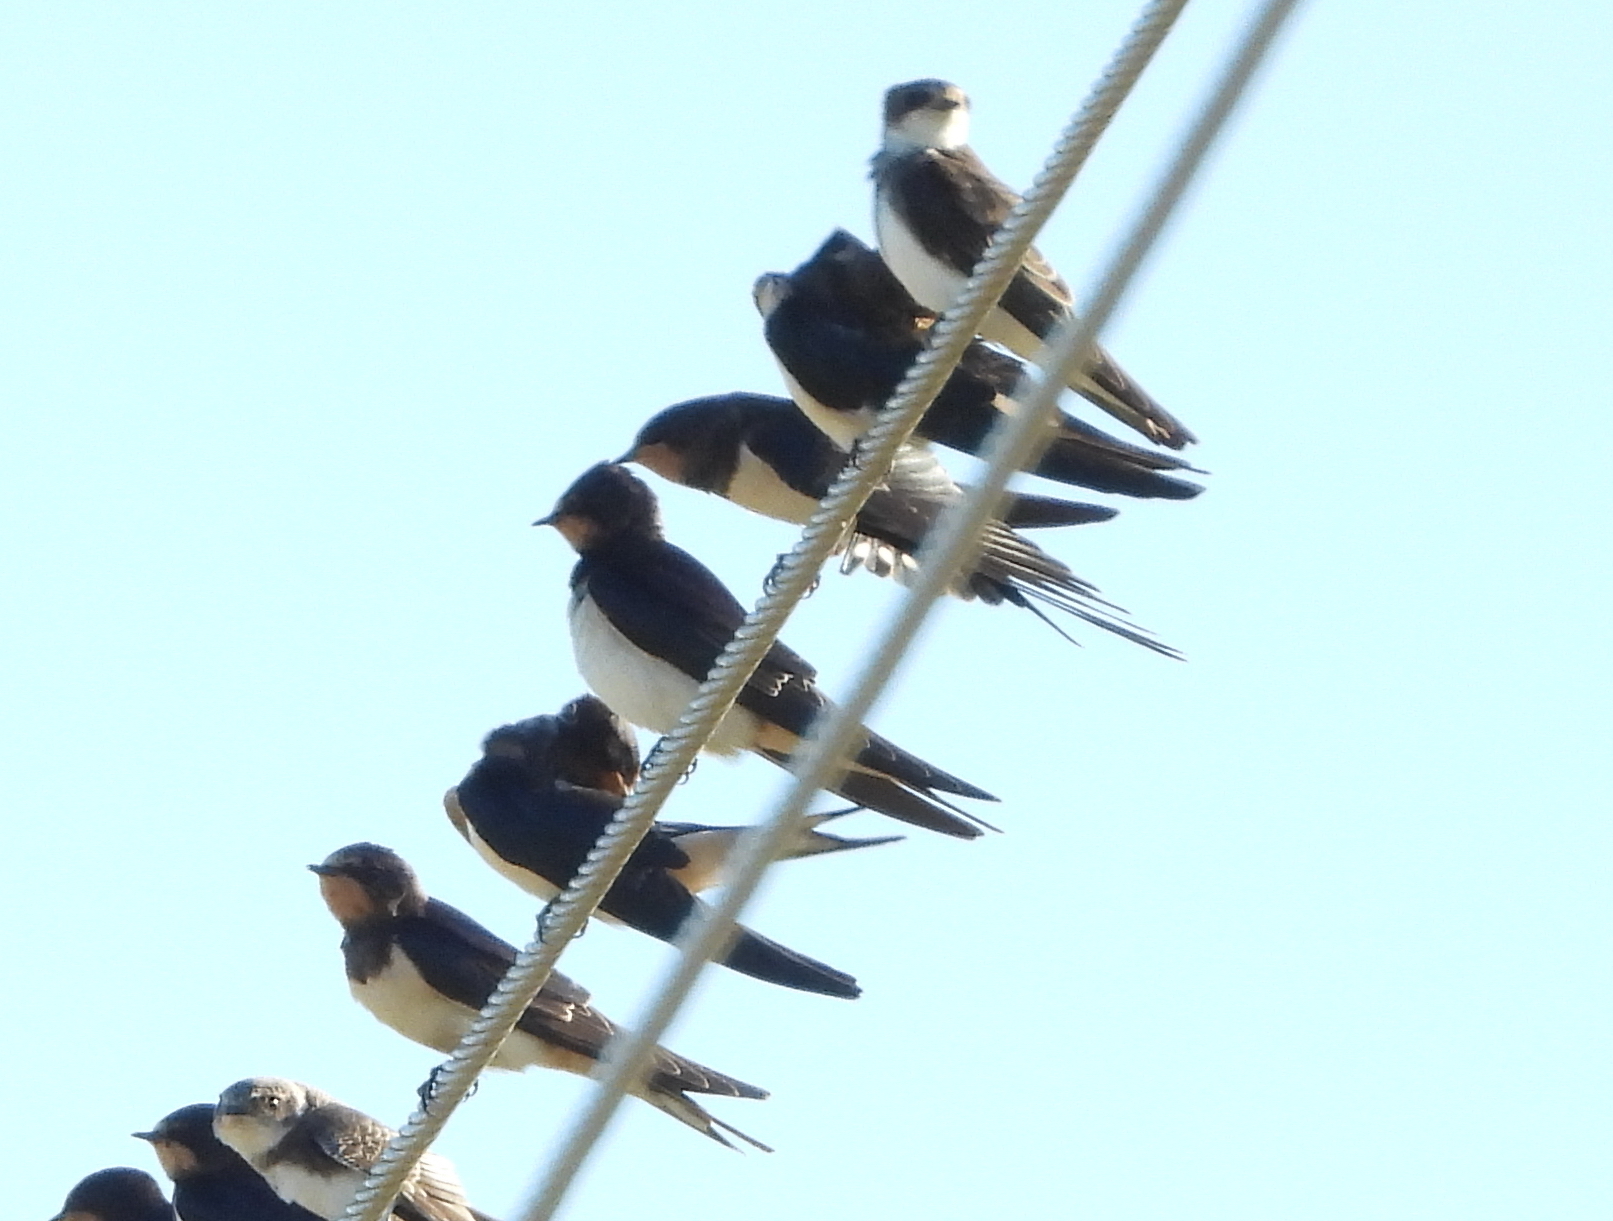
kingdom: Animalia
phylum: Chordata
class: Aves
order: Passeriformes
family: Hirundinidae
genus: Hirundo
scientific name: Hirundo rustica
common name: Barn swallow
